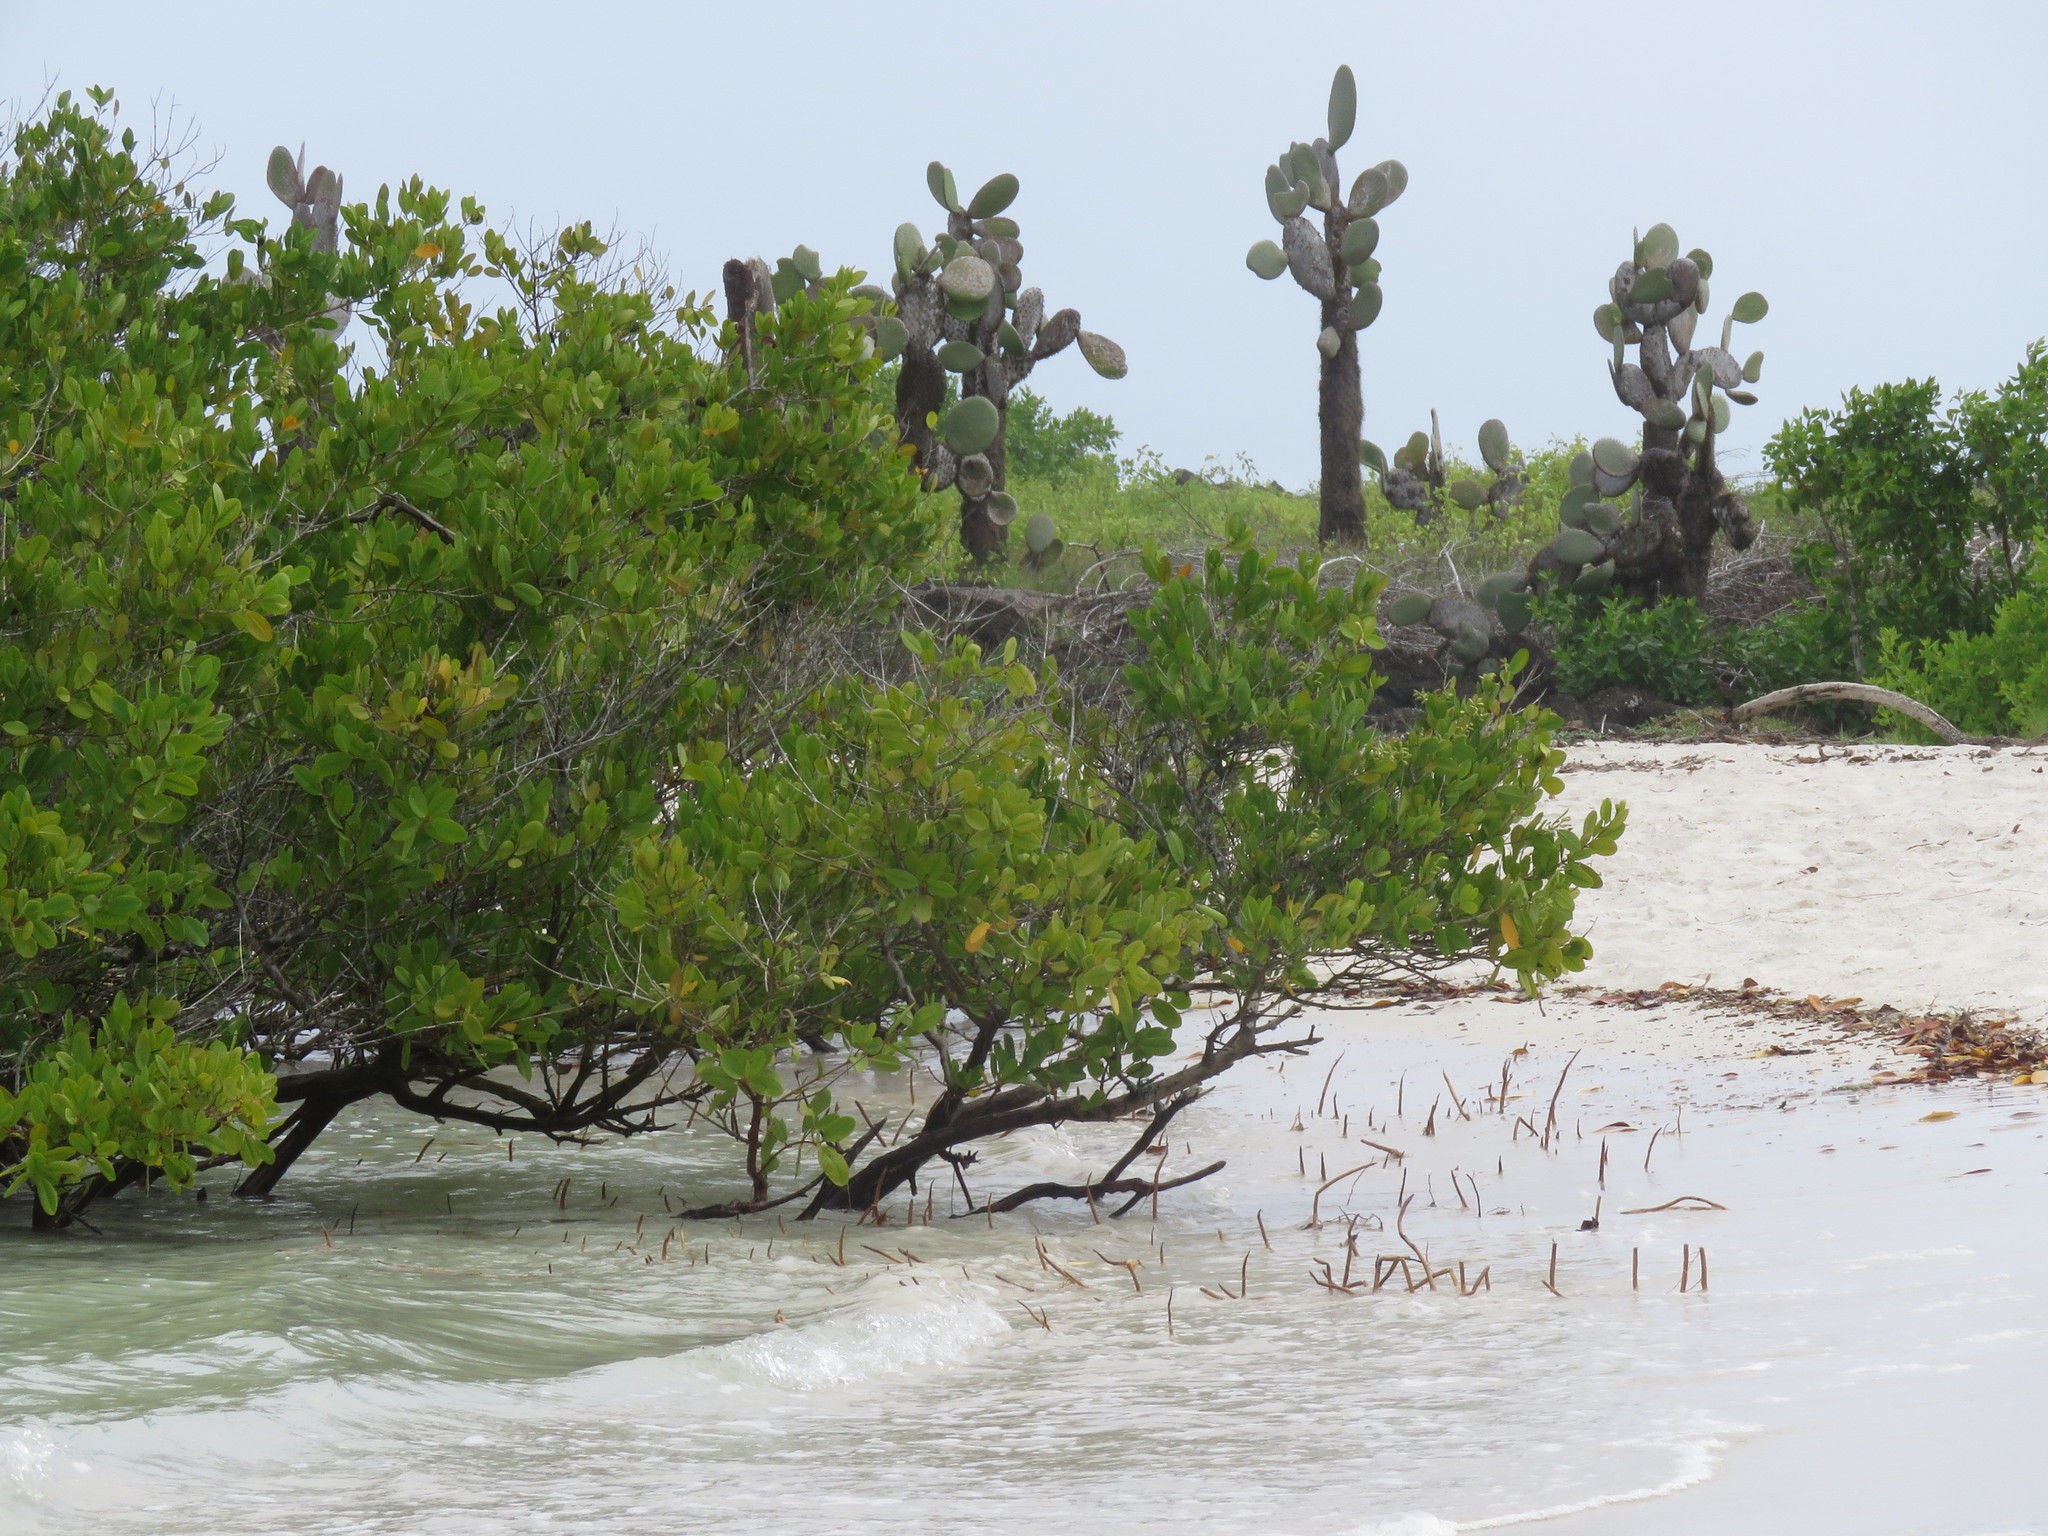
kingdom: Plantae
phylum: Tracheophyta
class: Magnoliopsida
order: Malpighiales
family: Rhizophoraceae
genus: Rhizophora
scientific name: Rhizophora mangle
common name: Red mangrove
